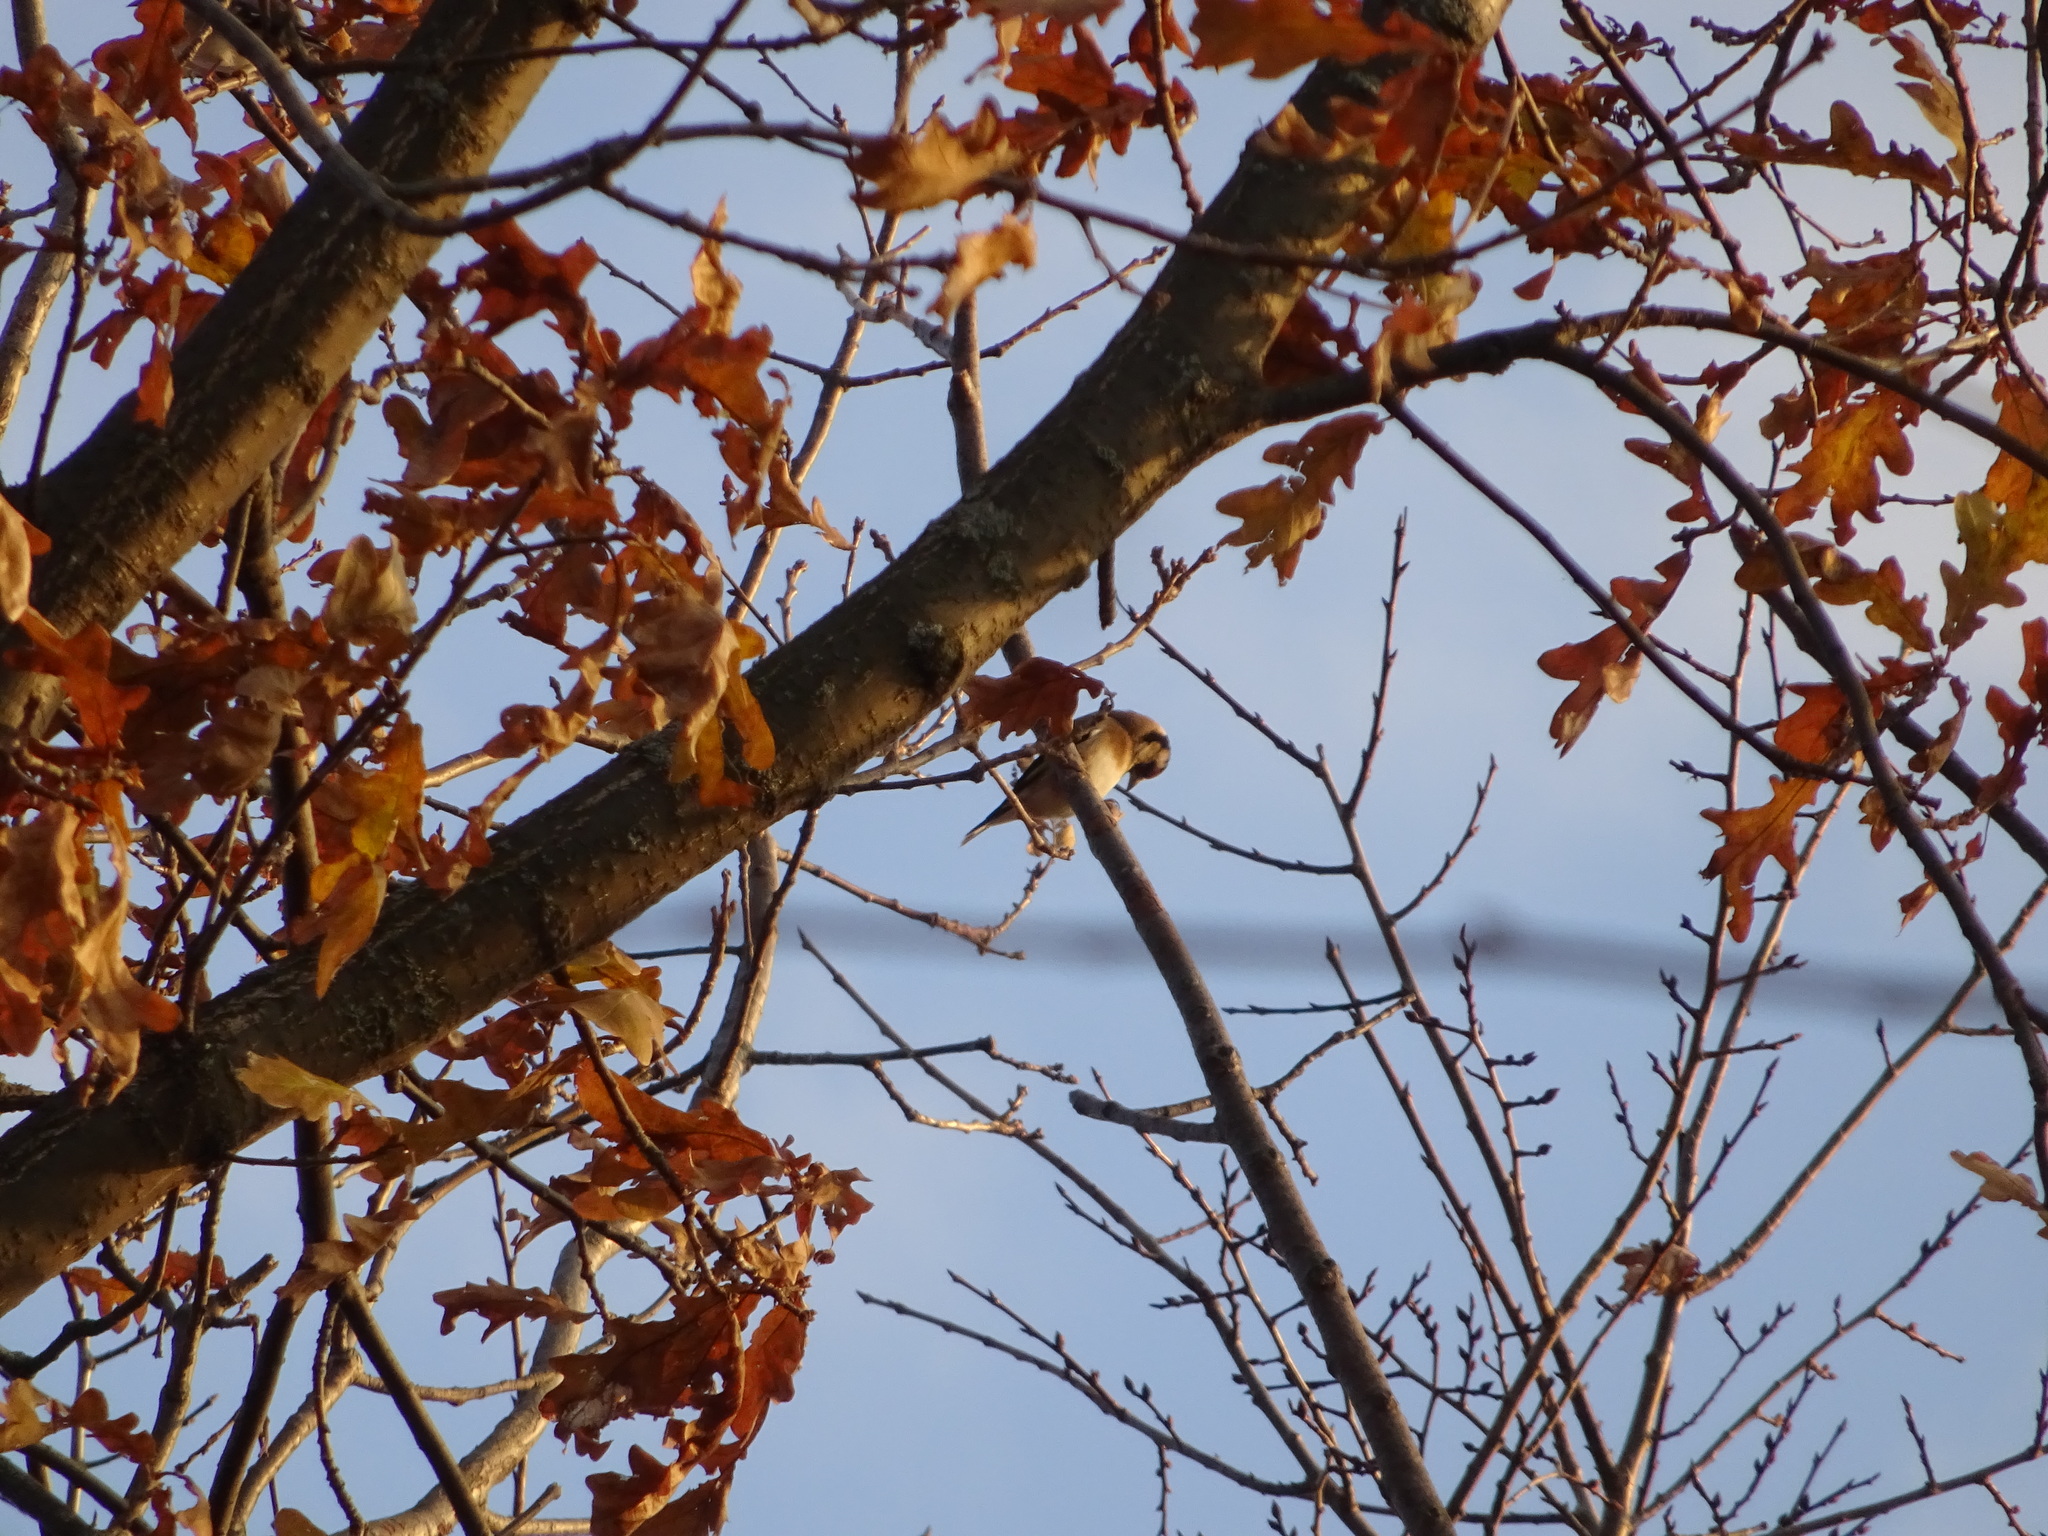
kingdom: Animalia
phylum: Chordata
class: Aves
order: Passeriformes
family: Fringillidae
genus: Carduelis
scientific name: Carduelis carduelis
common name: European goldfinch
